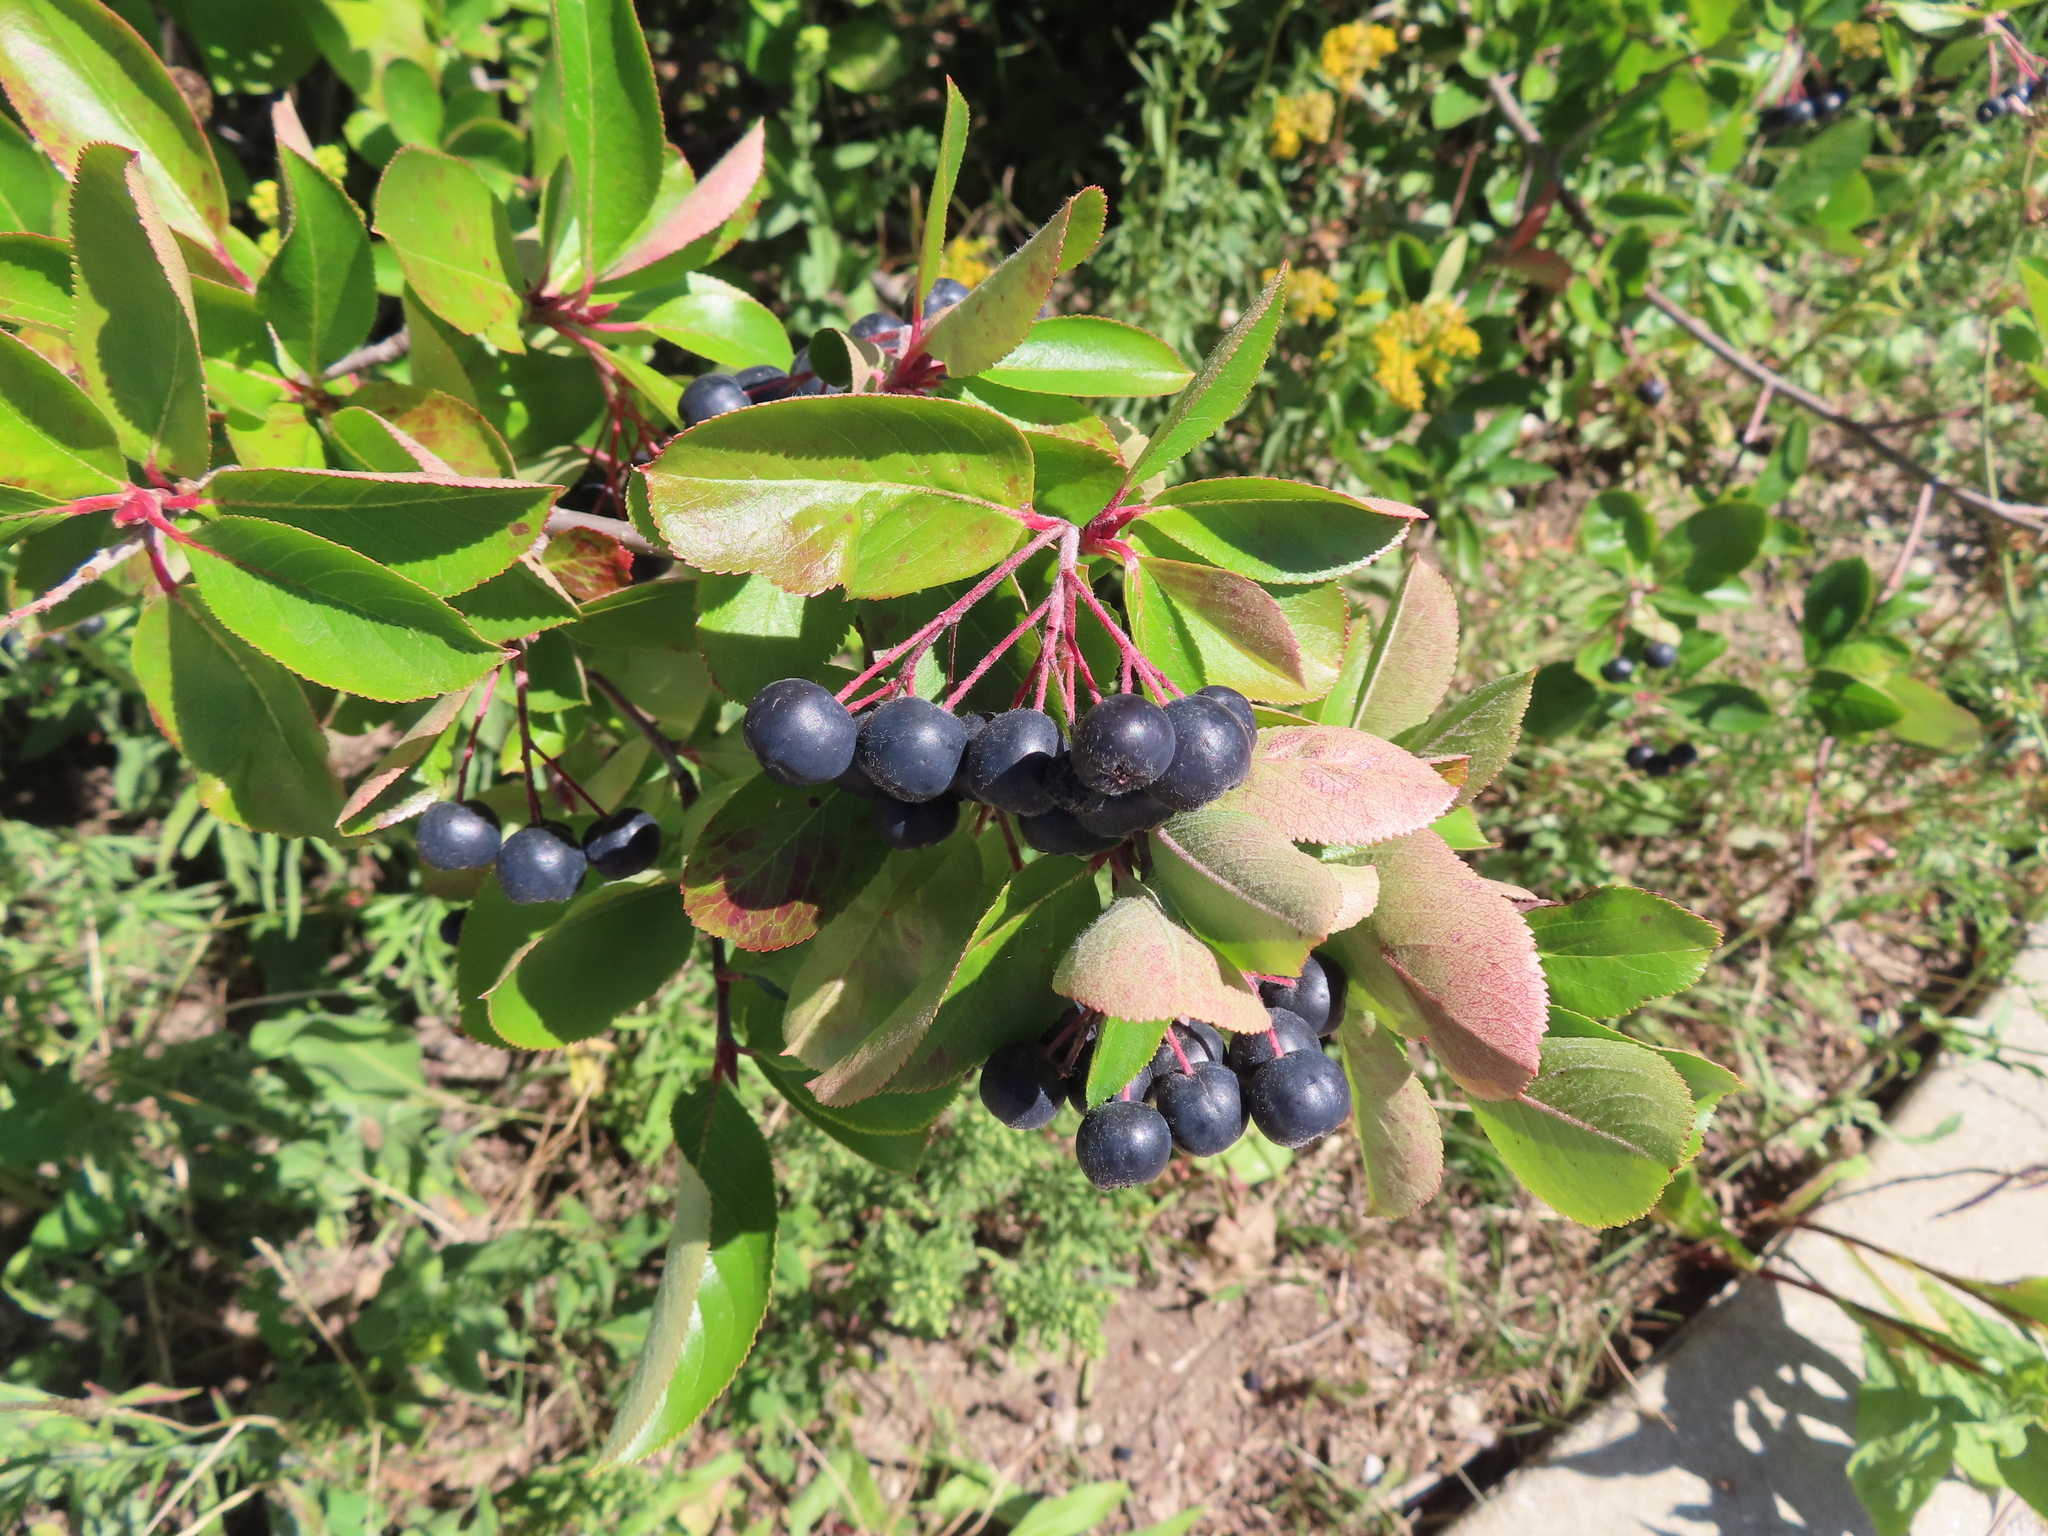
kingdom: Plantae
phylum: Tracheophyta
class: Magnoliopsida
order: Rosales
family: Rosaceae
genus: Aronia
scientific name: Aronia melanocarpa
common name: Black chokeberry
